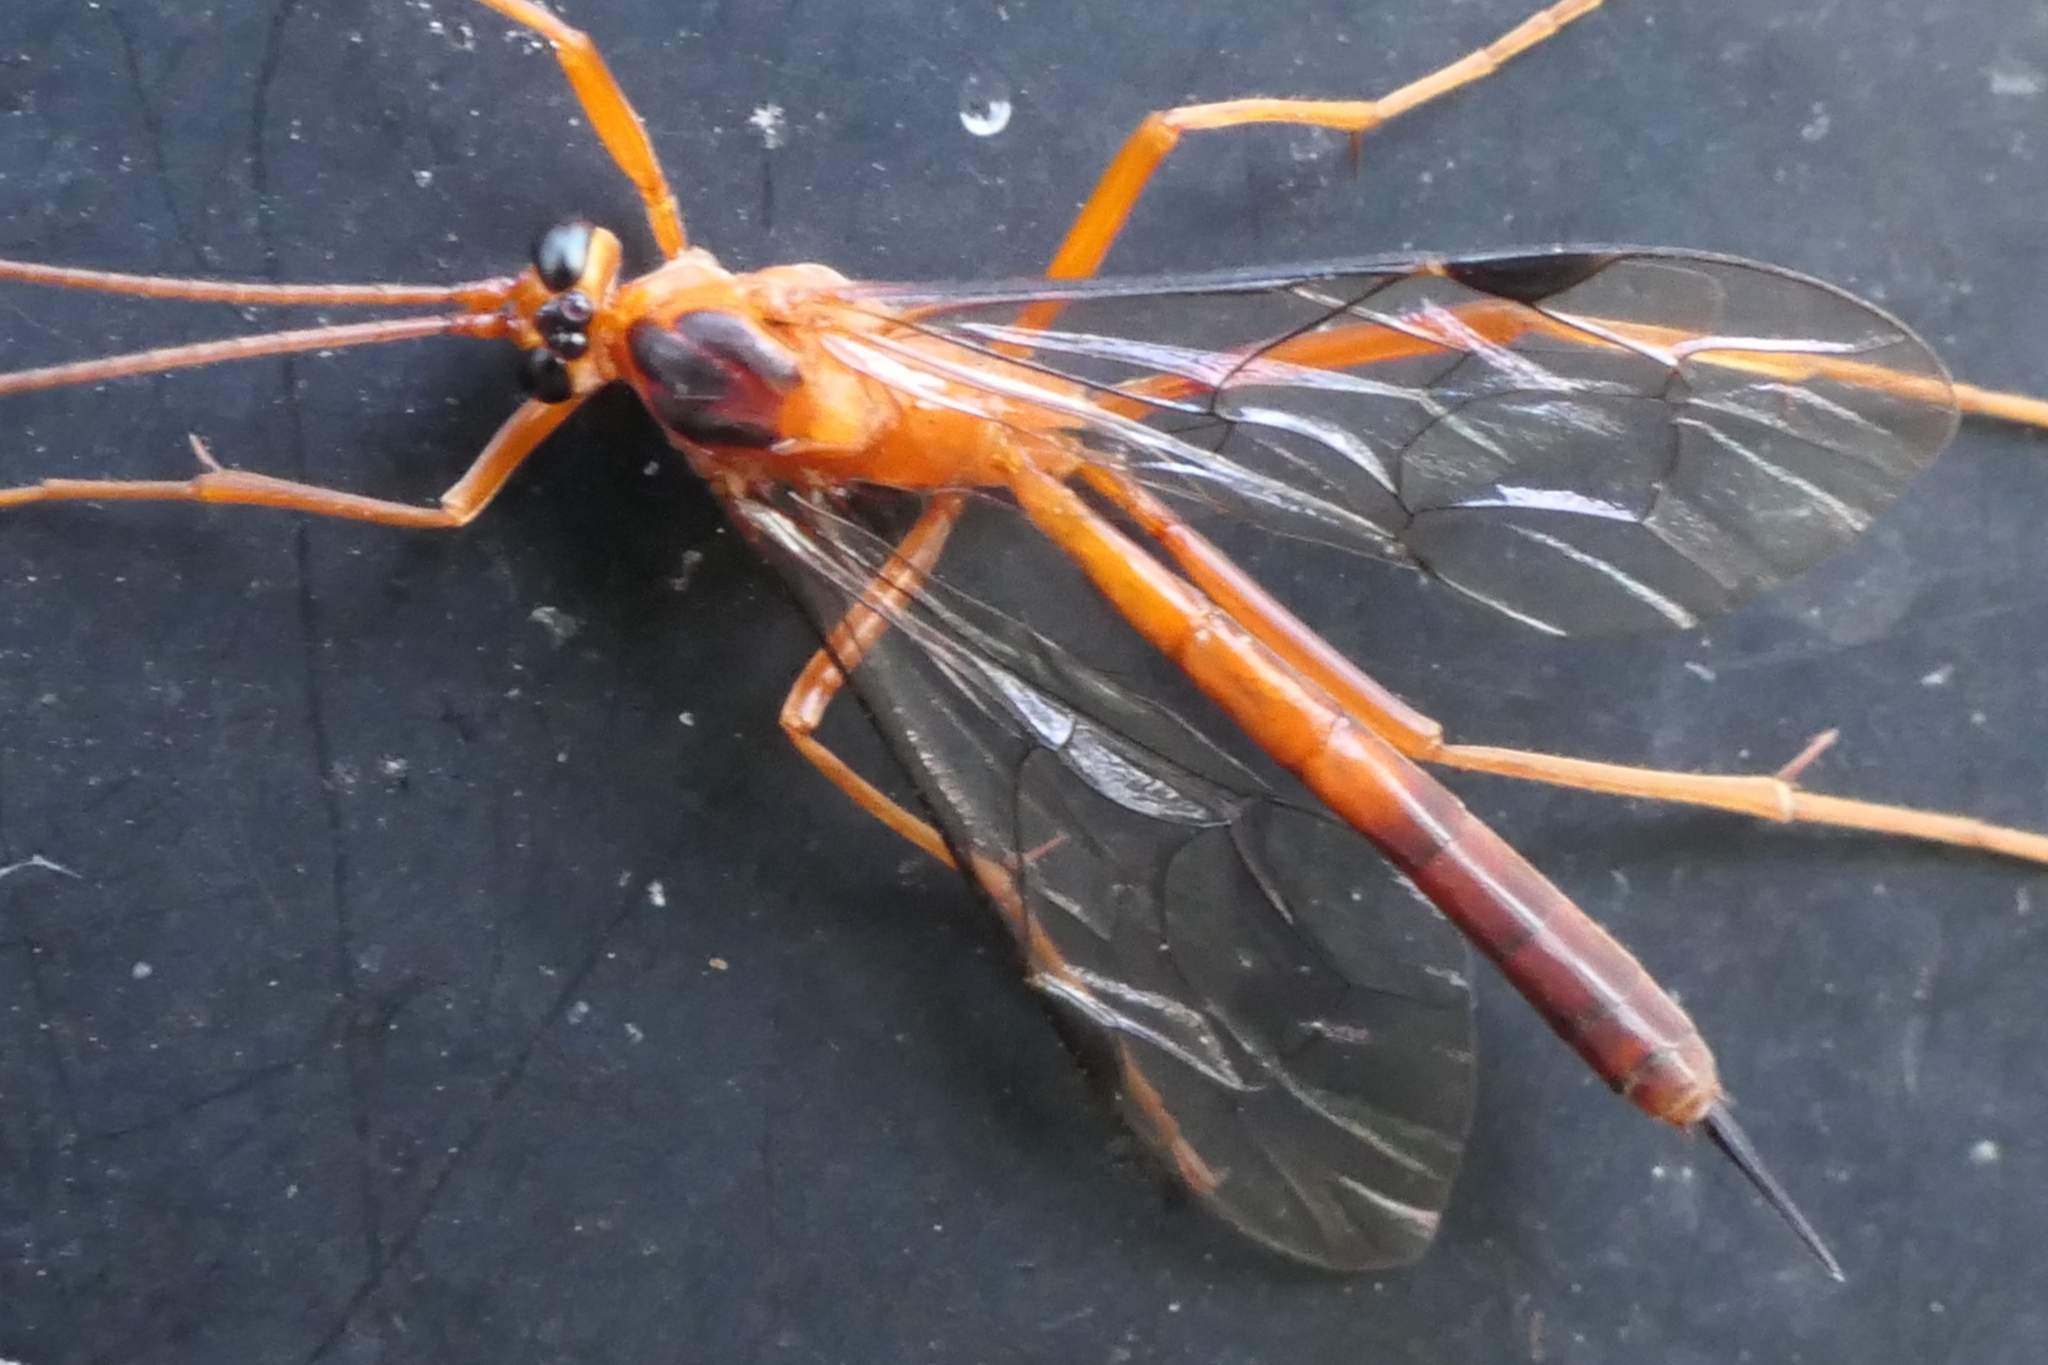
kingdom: Animalia
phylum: Arthropoda
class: Insecta
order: Hymenoptera
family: Ichneumonidae
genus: Netelia
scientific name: Netelia ephippiata
